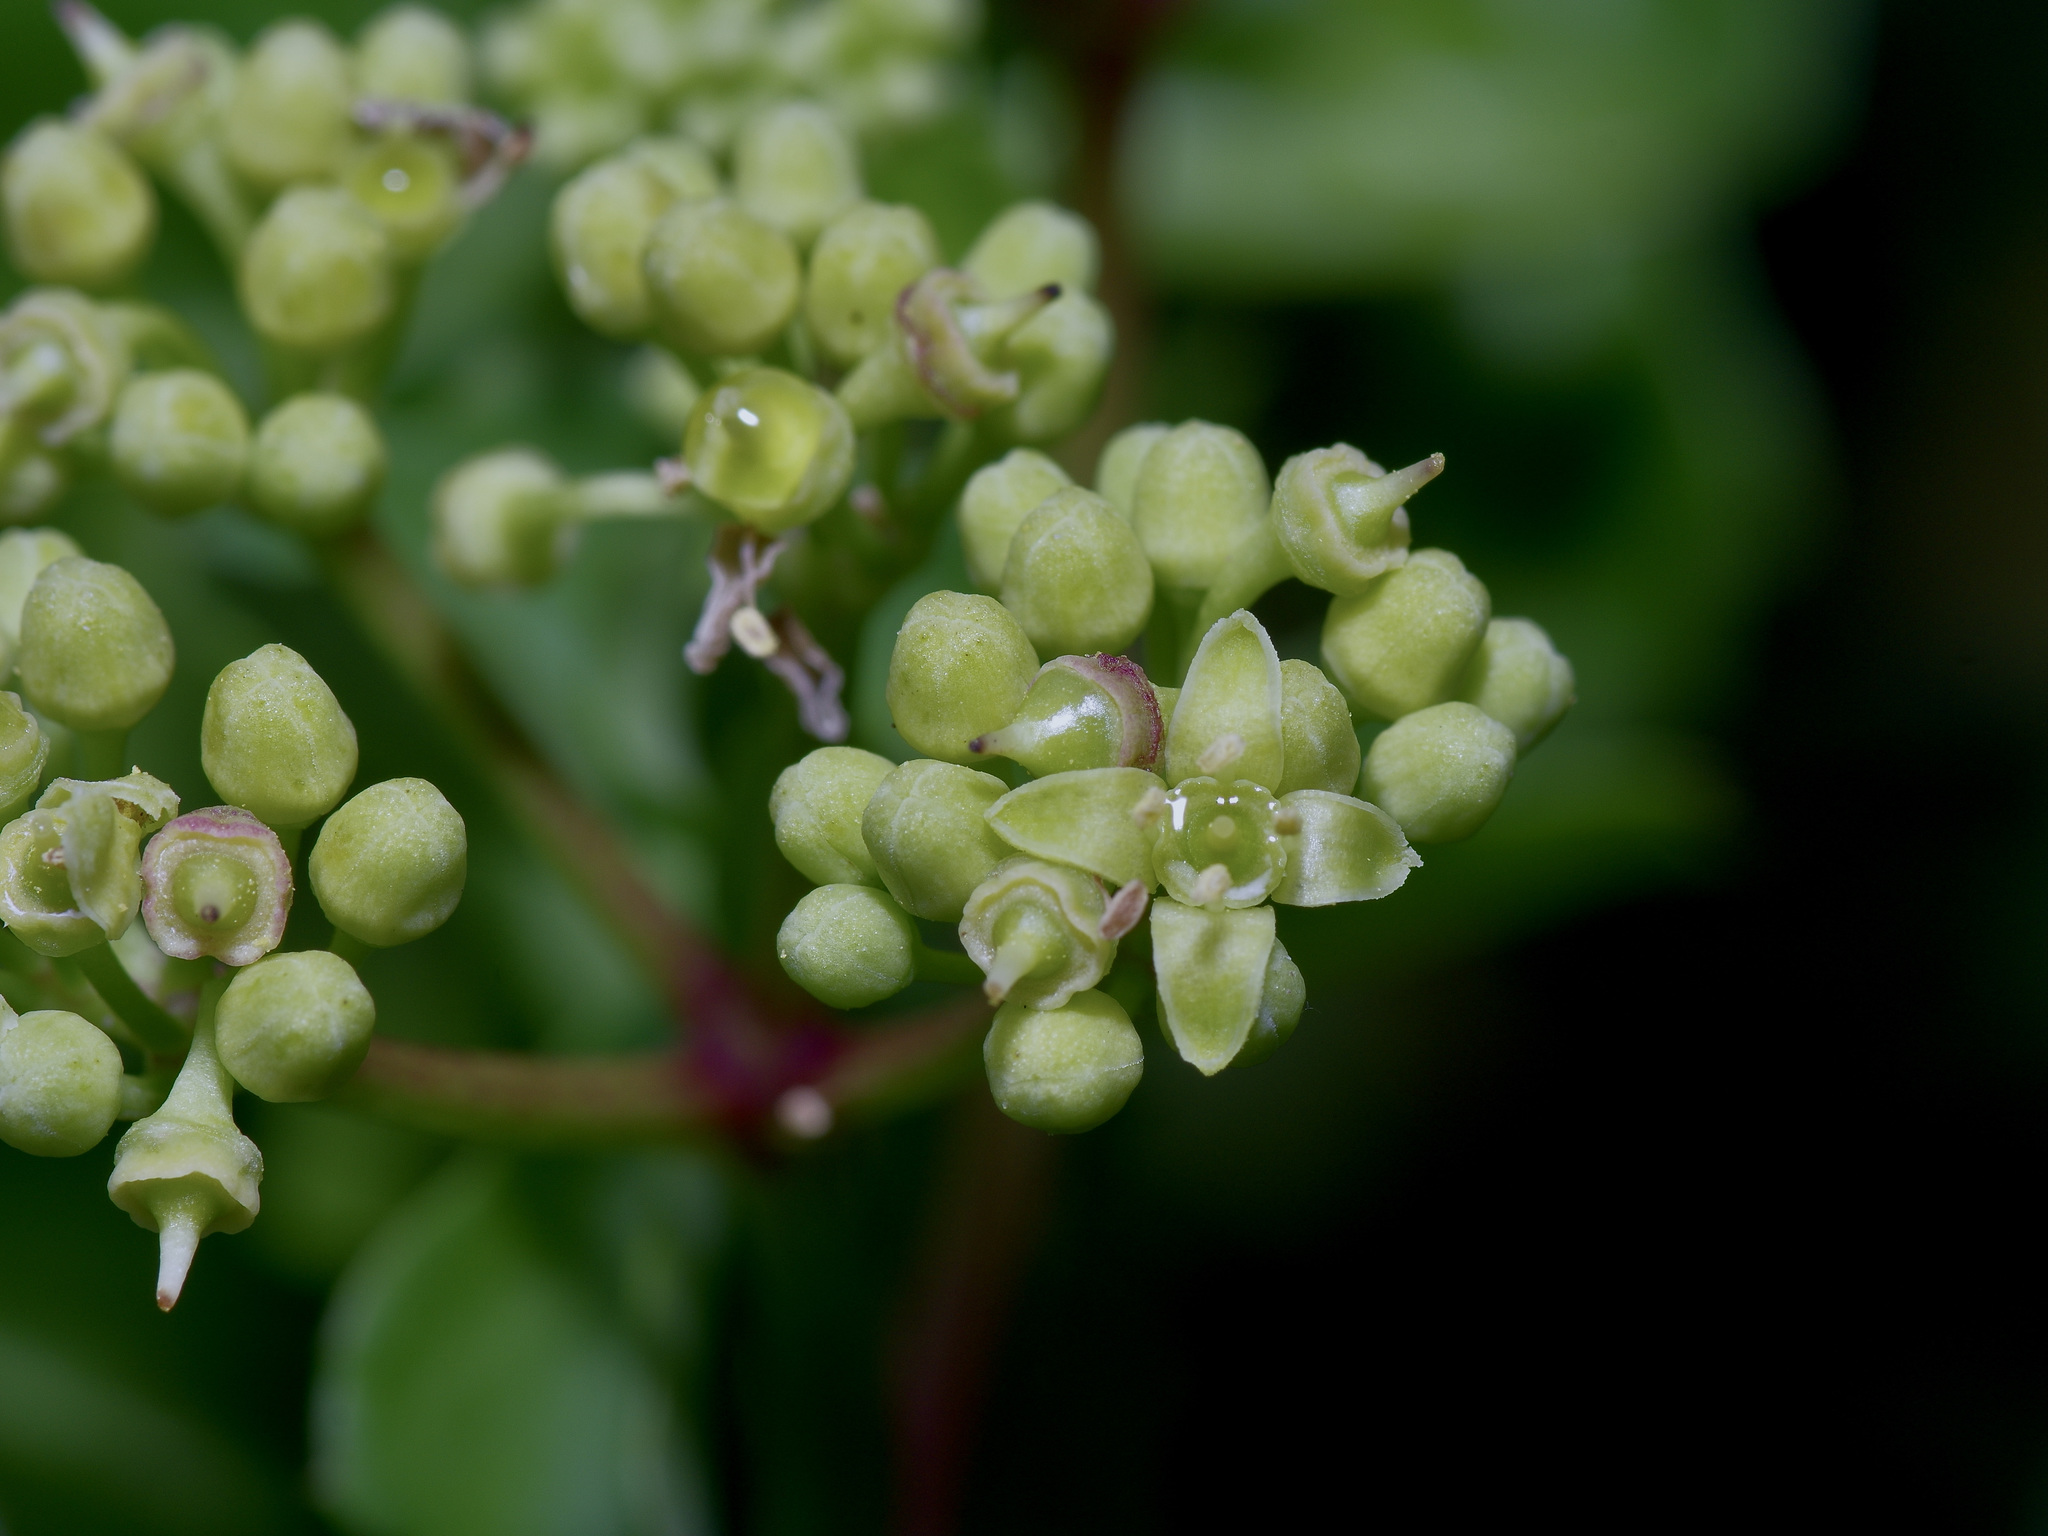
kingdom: Plantae
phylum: Tracheophyta
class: Magnoliopsida
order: Vitales
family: Vitaceae
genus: Cissus
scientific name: Cissus trifoliata
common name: Vine-sorrel
